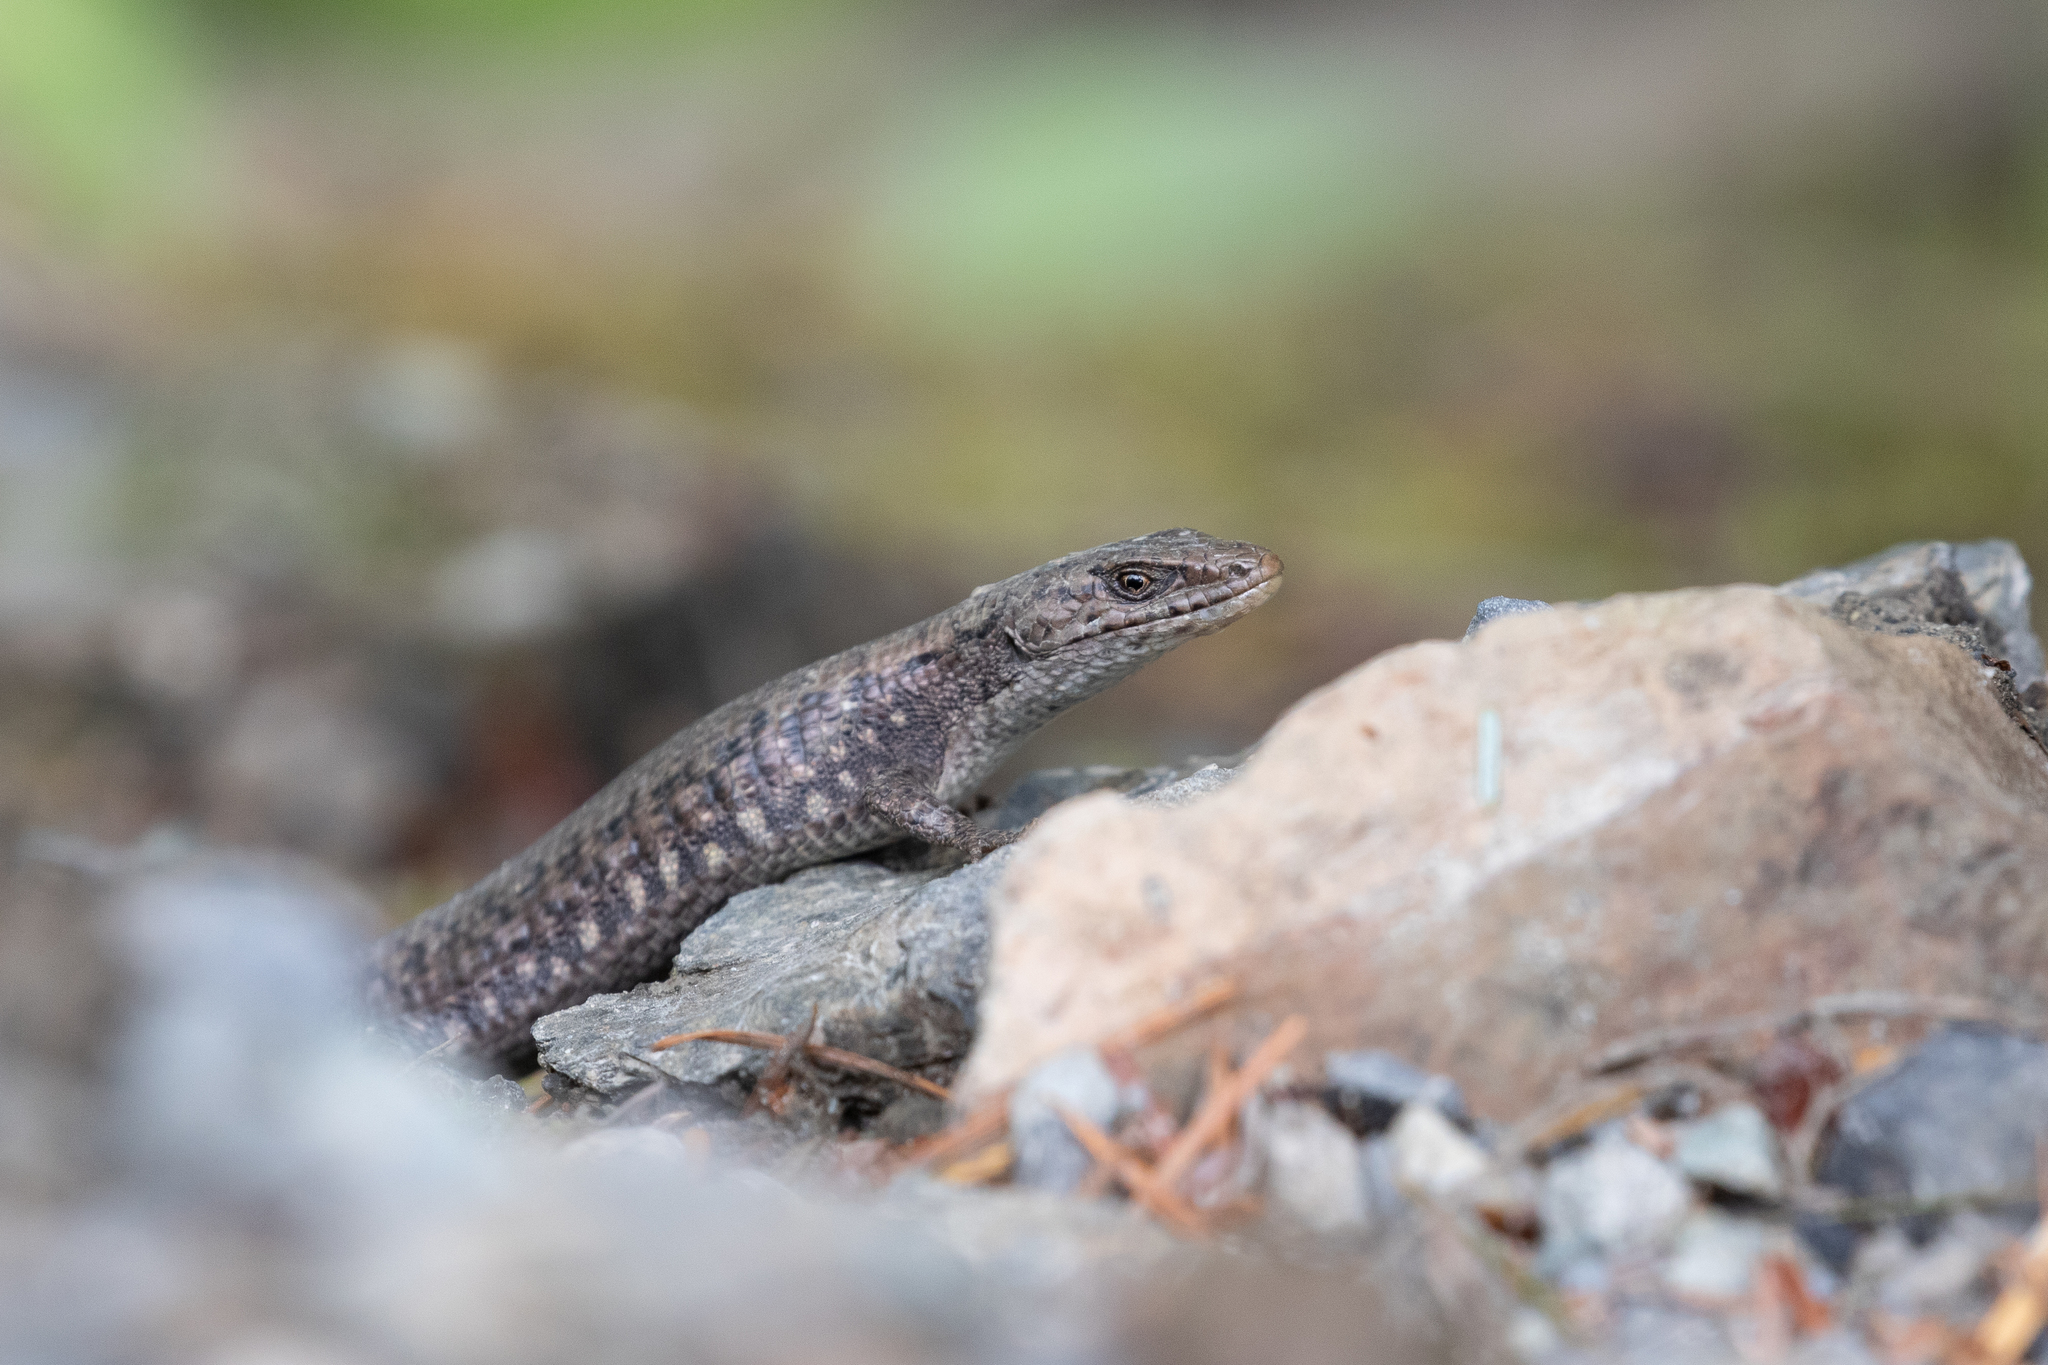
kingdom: Animalia
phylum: Chordata
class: Squamata
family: Anguidae
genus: Elgaria
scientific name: Elgaria coerulea
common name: Northern alligator lizard
